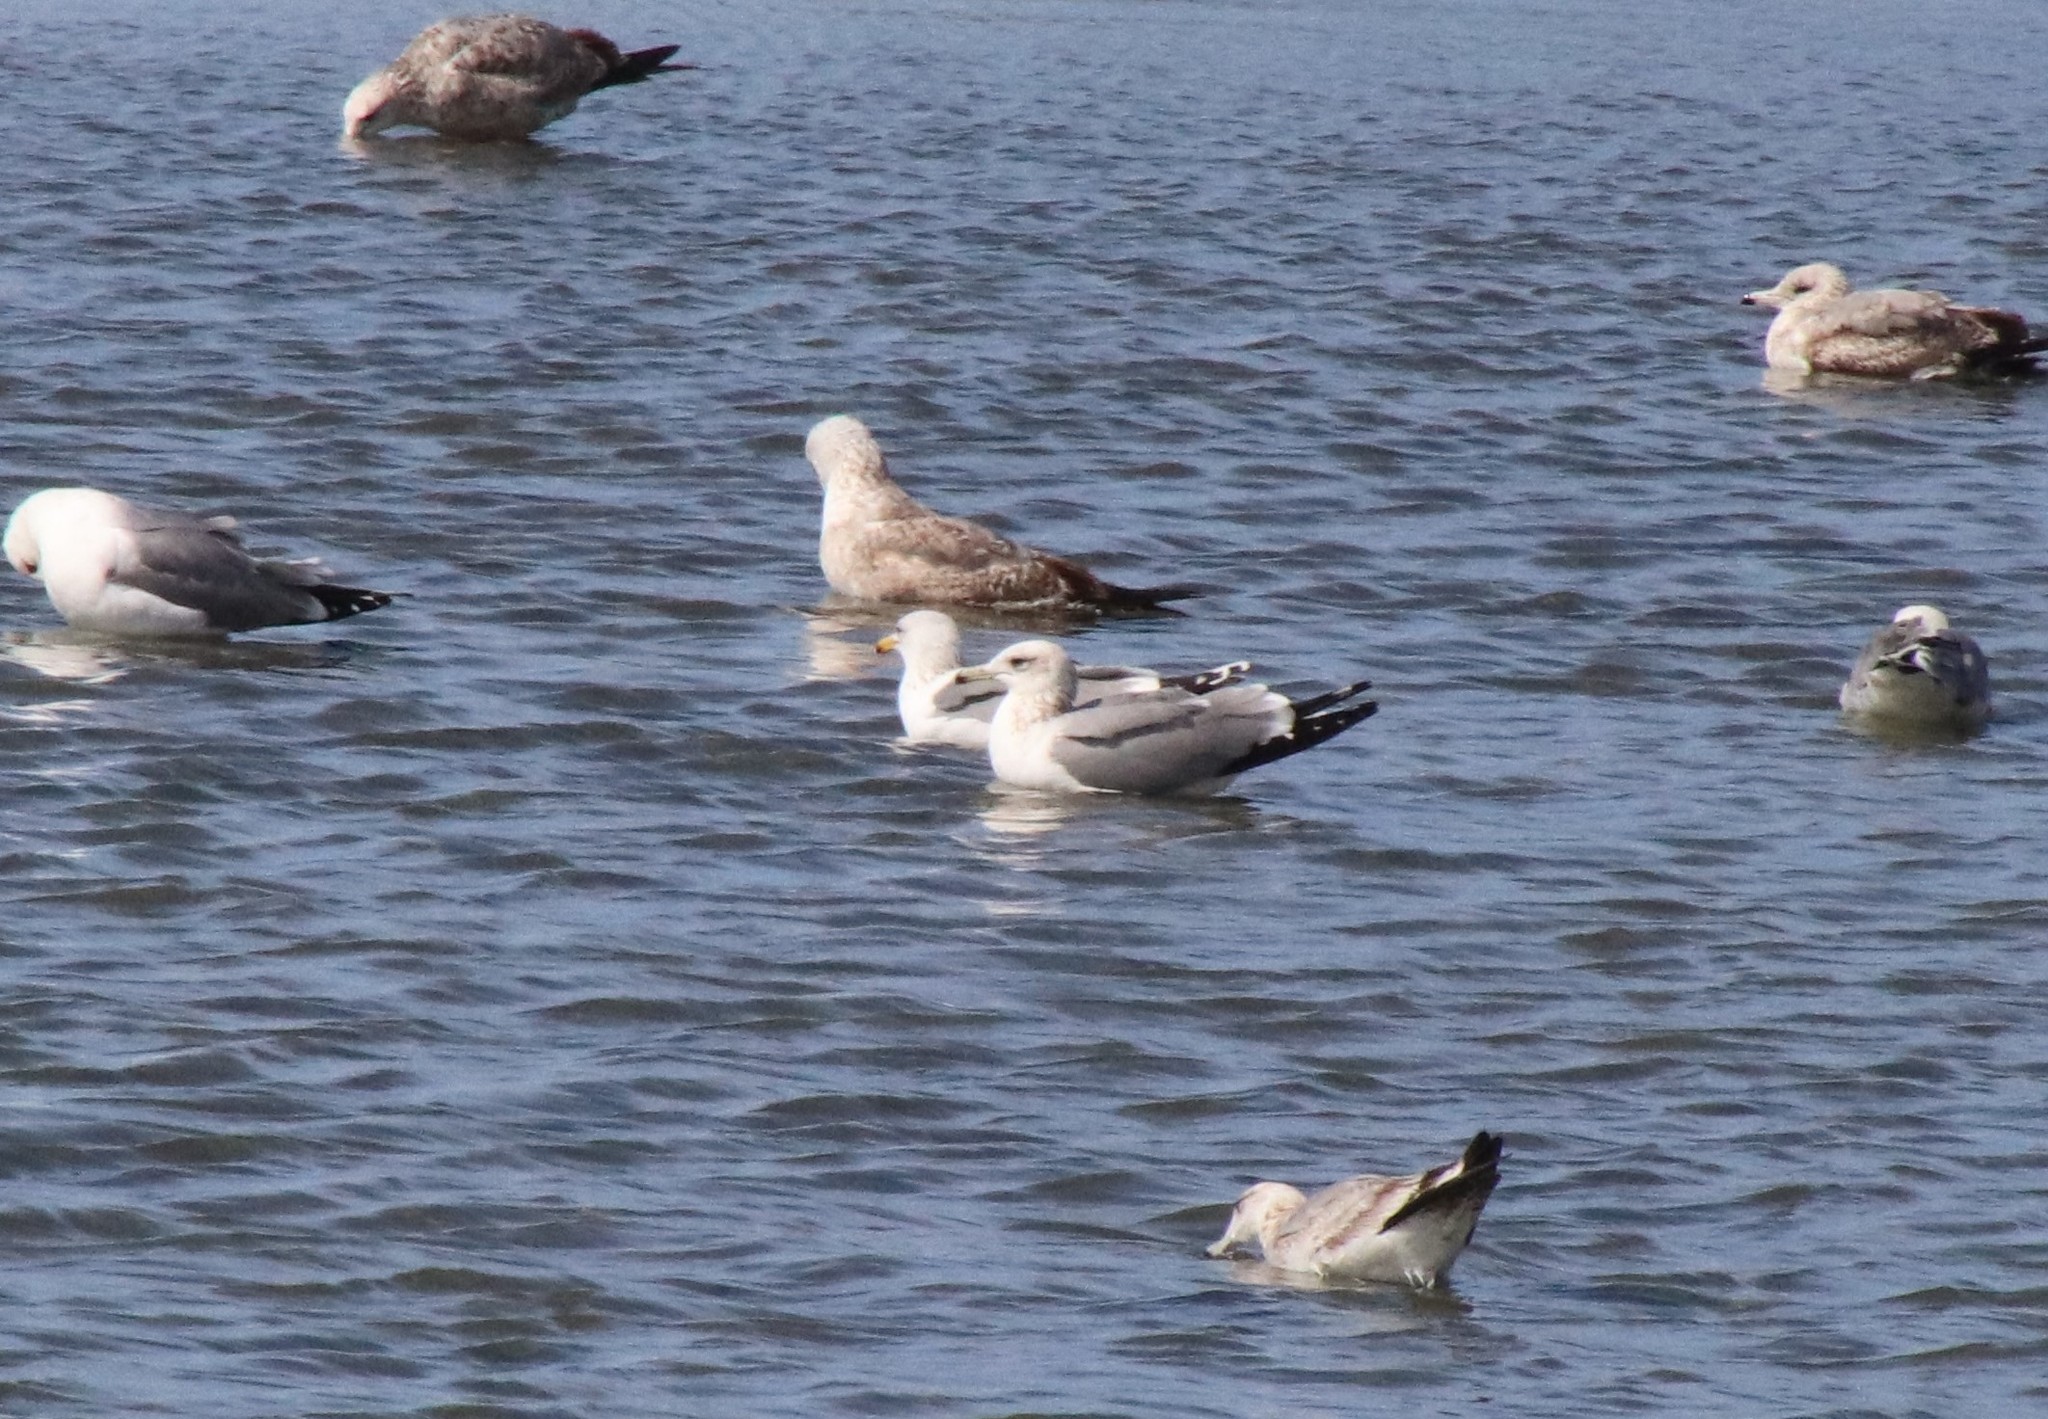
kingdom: Animalia
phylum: Chordata
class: Aves
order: Charadriiformes
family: Laridae
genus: Larus
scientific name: Larus californicus
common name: California gull
